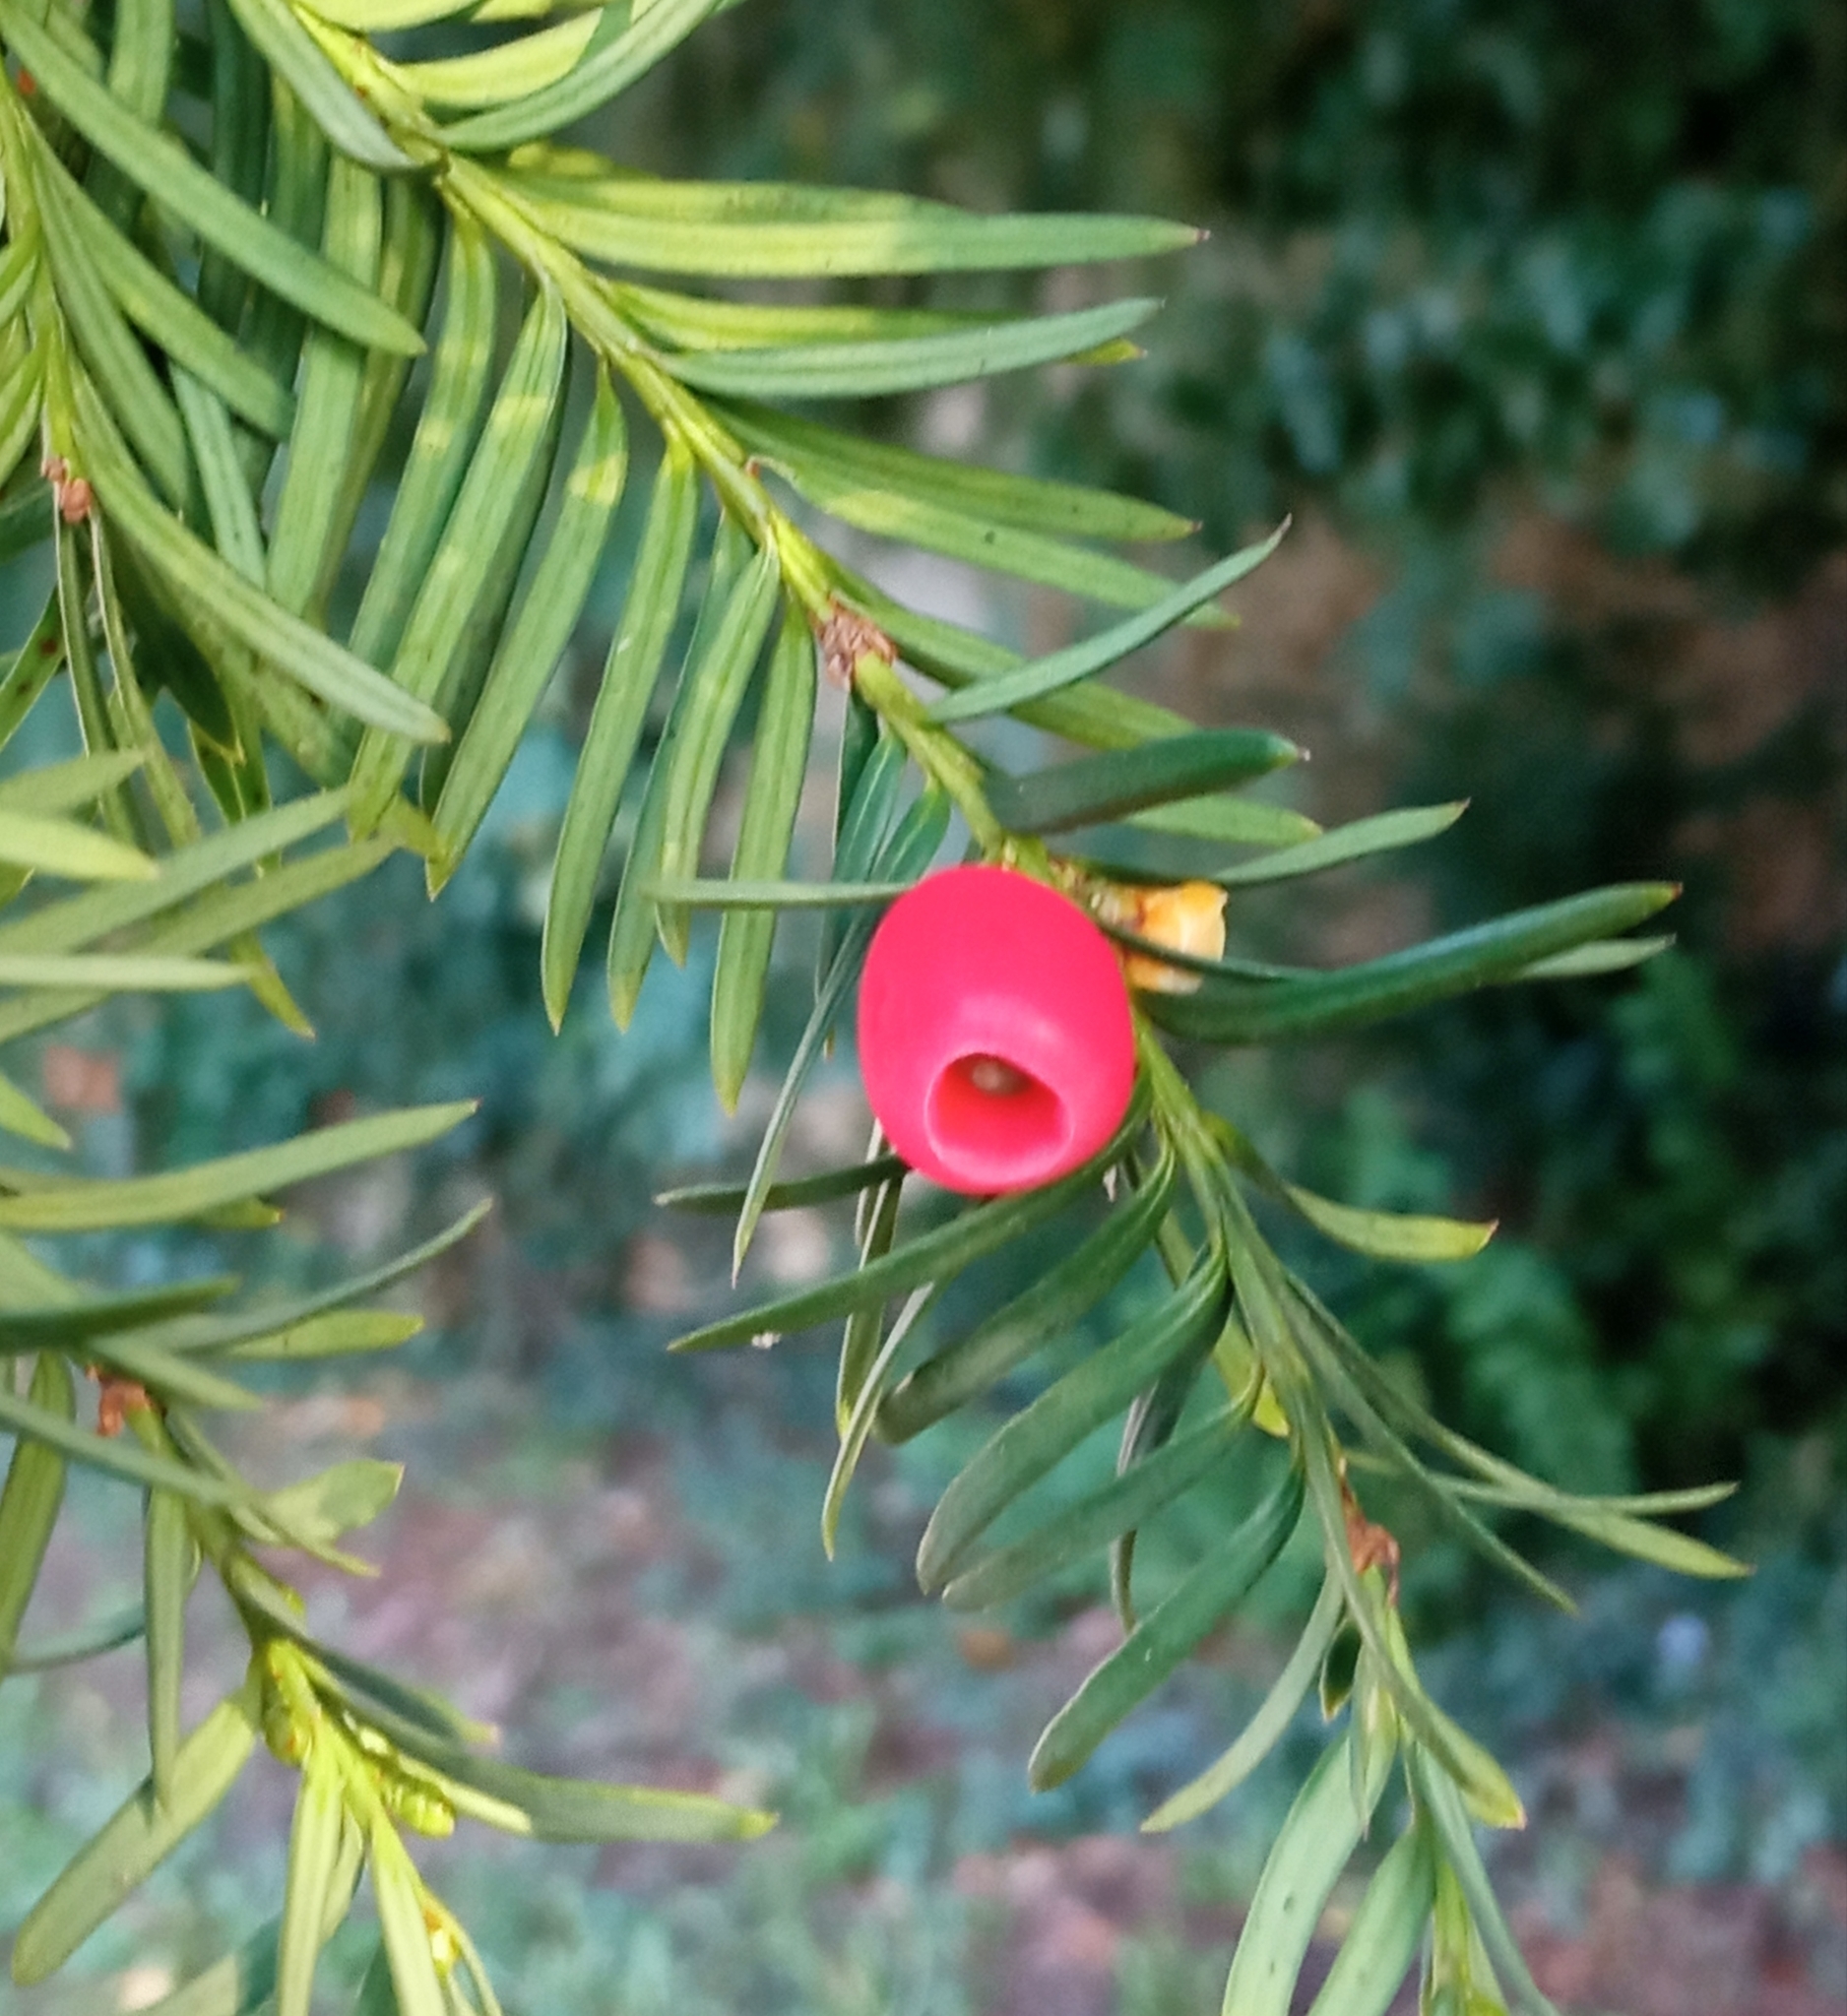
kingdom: Plantae
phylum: Tracheophyta
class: Pinopsida
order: Pinales
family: Taxaceae
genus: Taxus
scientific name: Taxus baccata
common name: Yew
